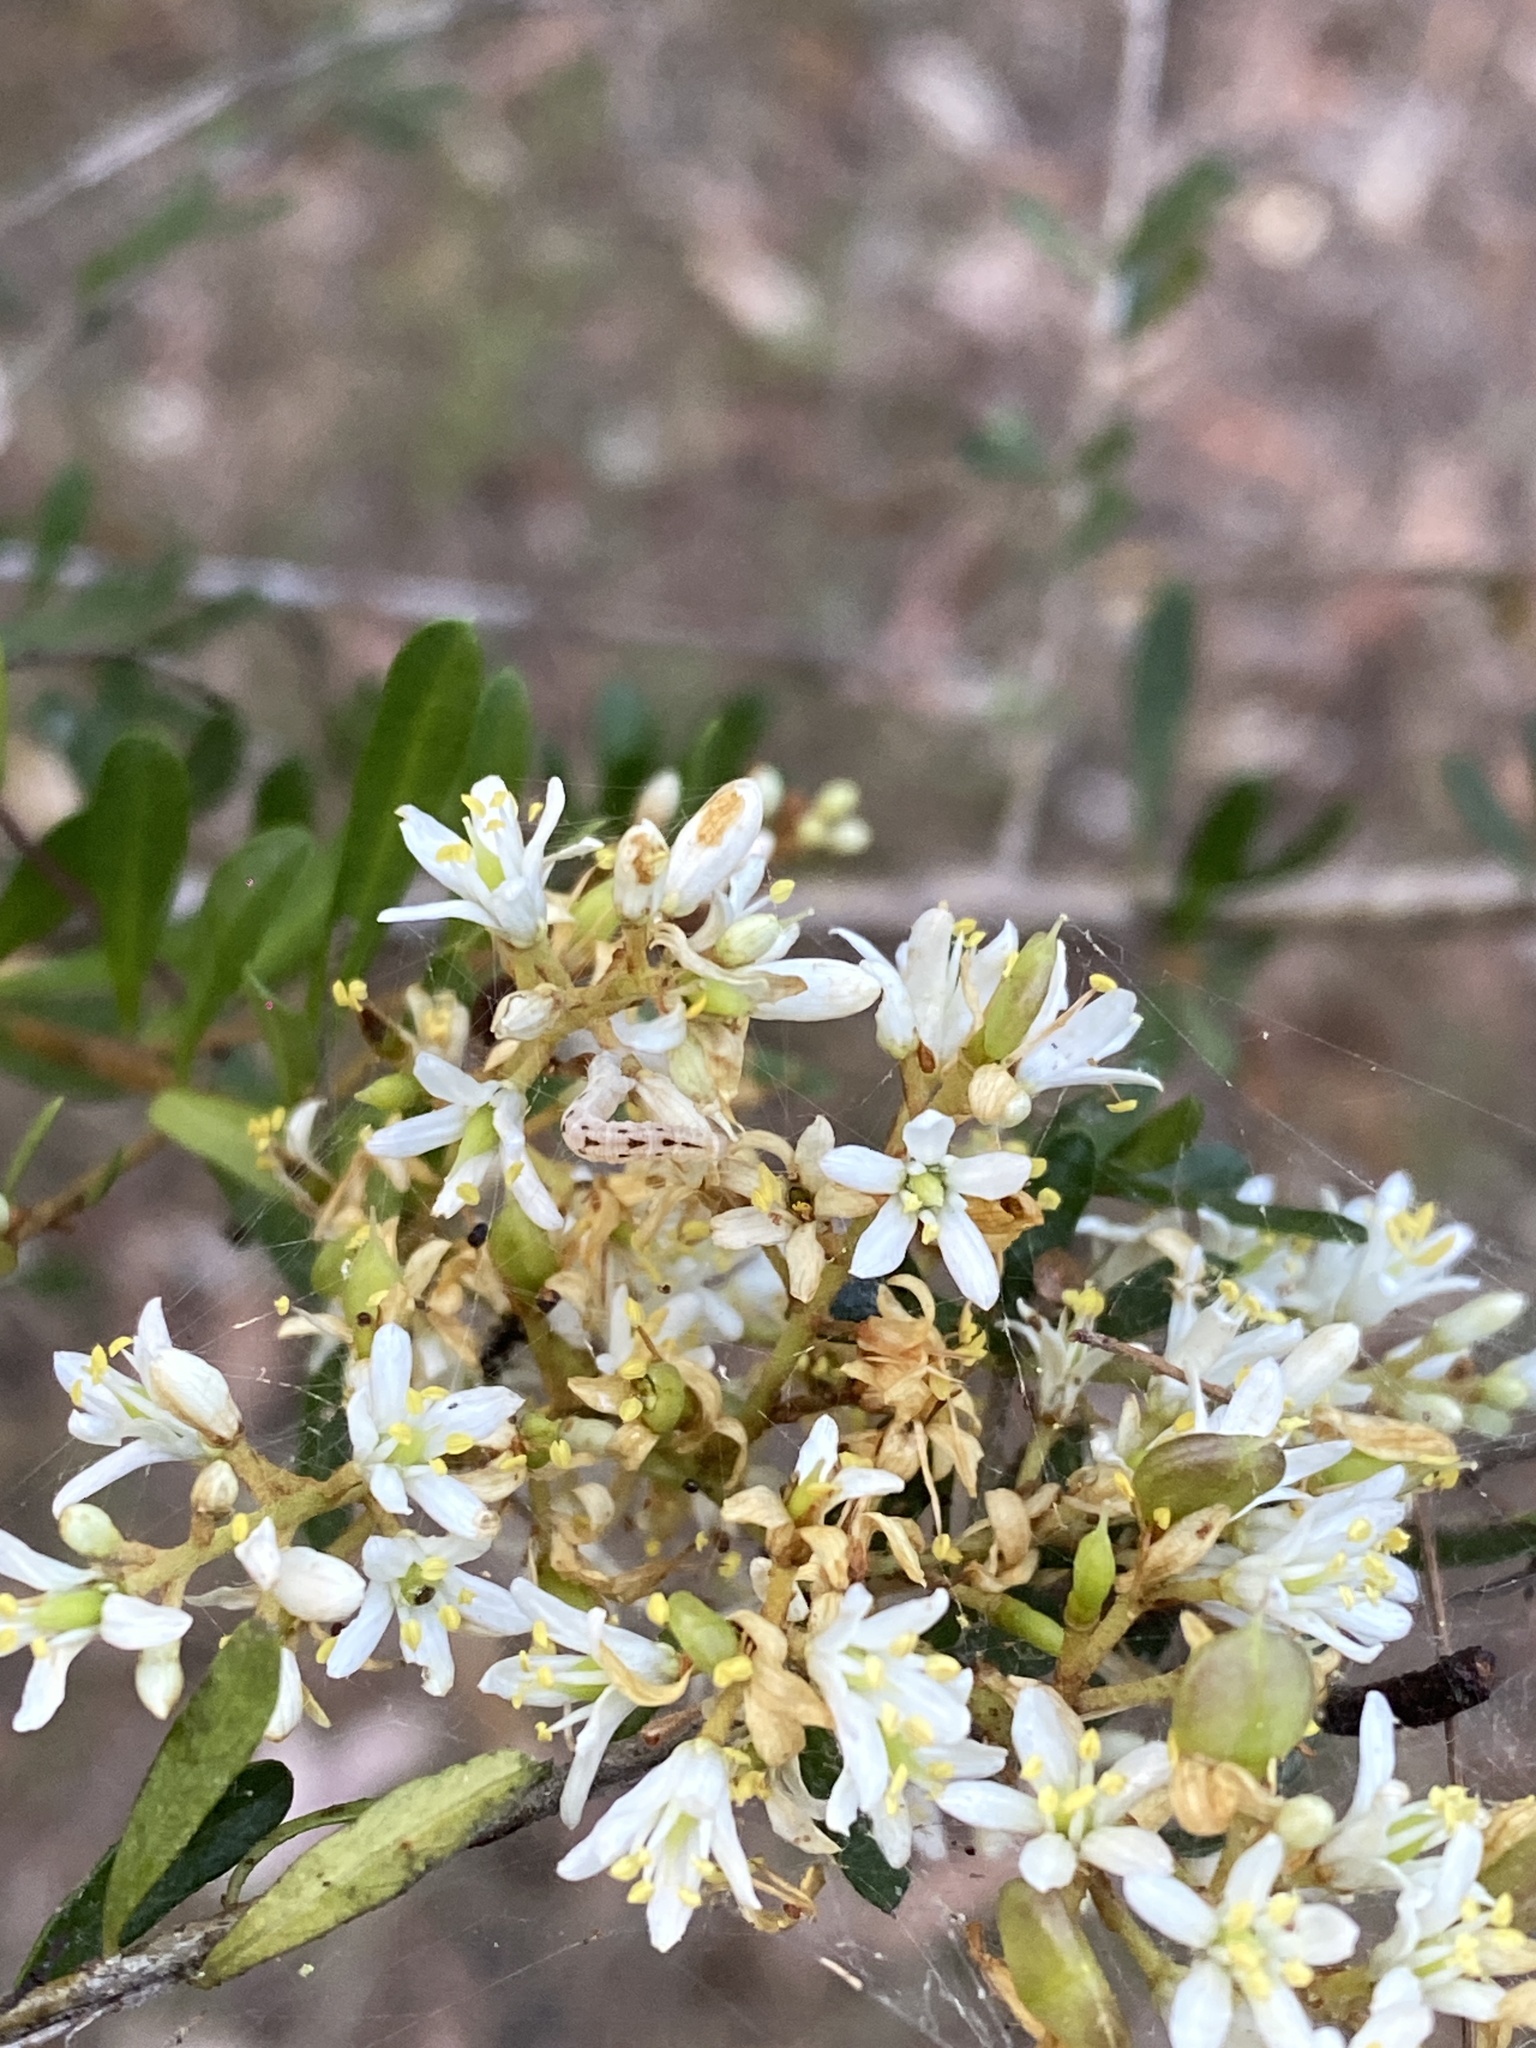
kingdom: Plantae
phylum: Tracheophyta
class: Magnoliopsida
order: Apiales
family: Pittosporaceae
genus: Bursaria
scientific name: Bursaria spinosa
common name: Australian blackthorn
